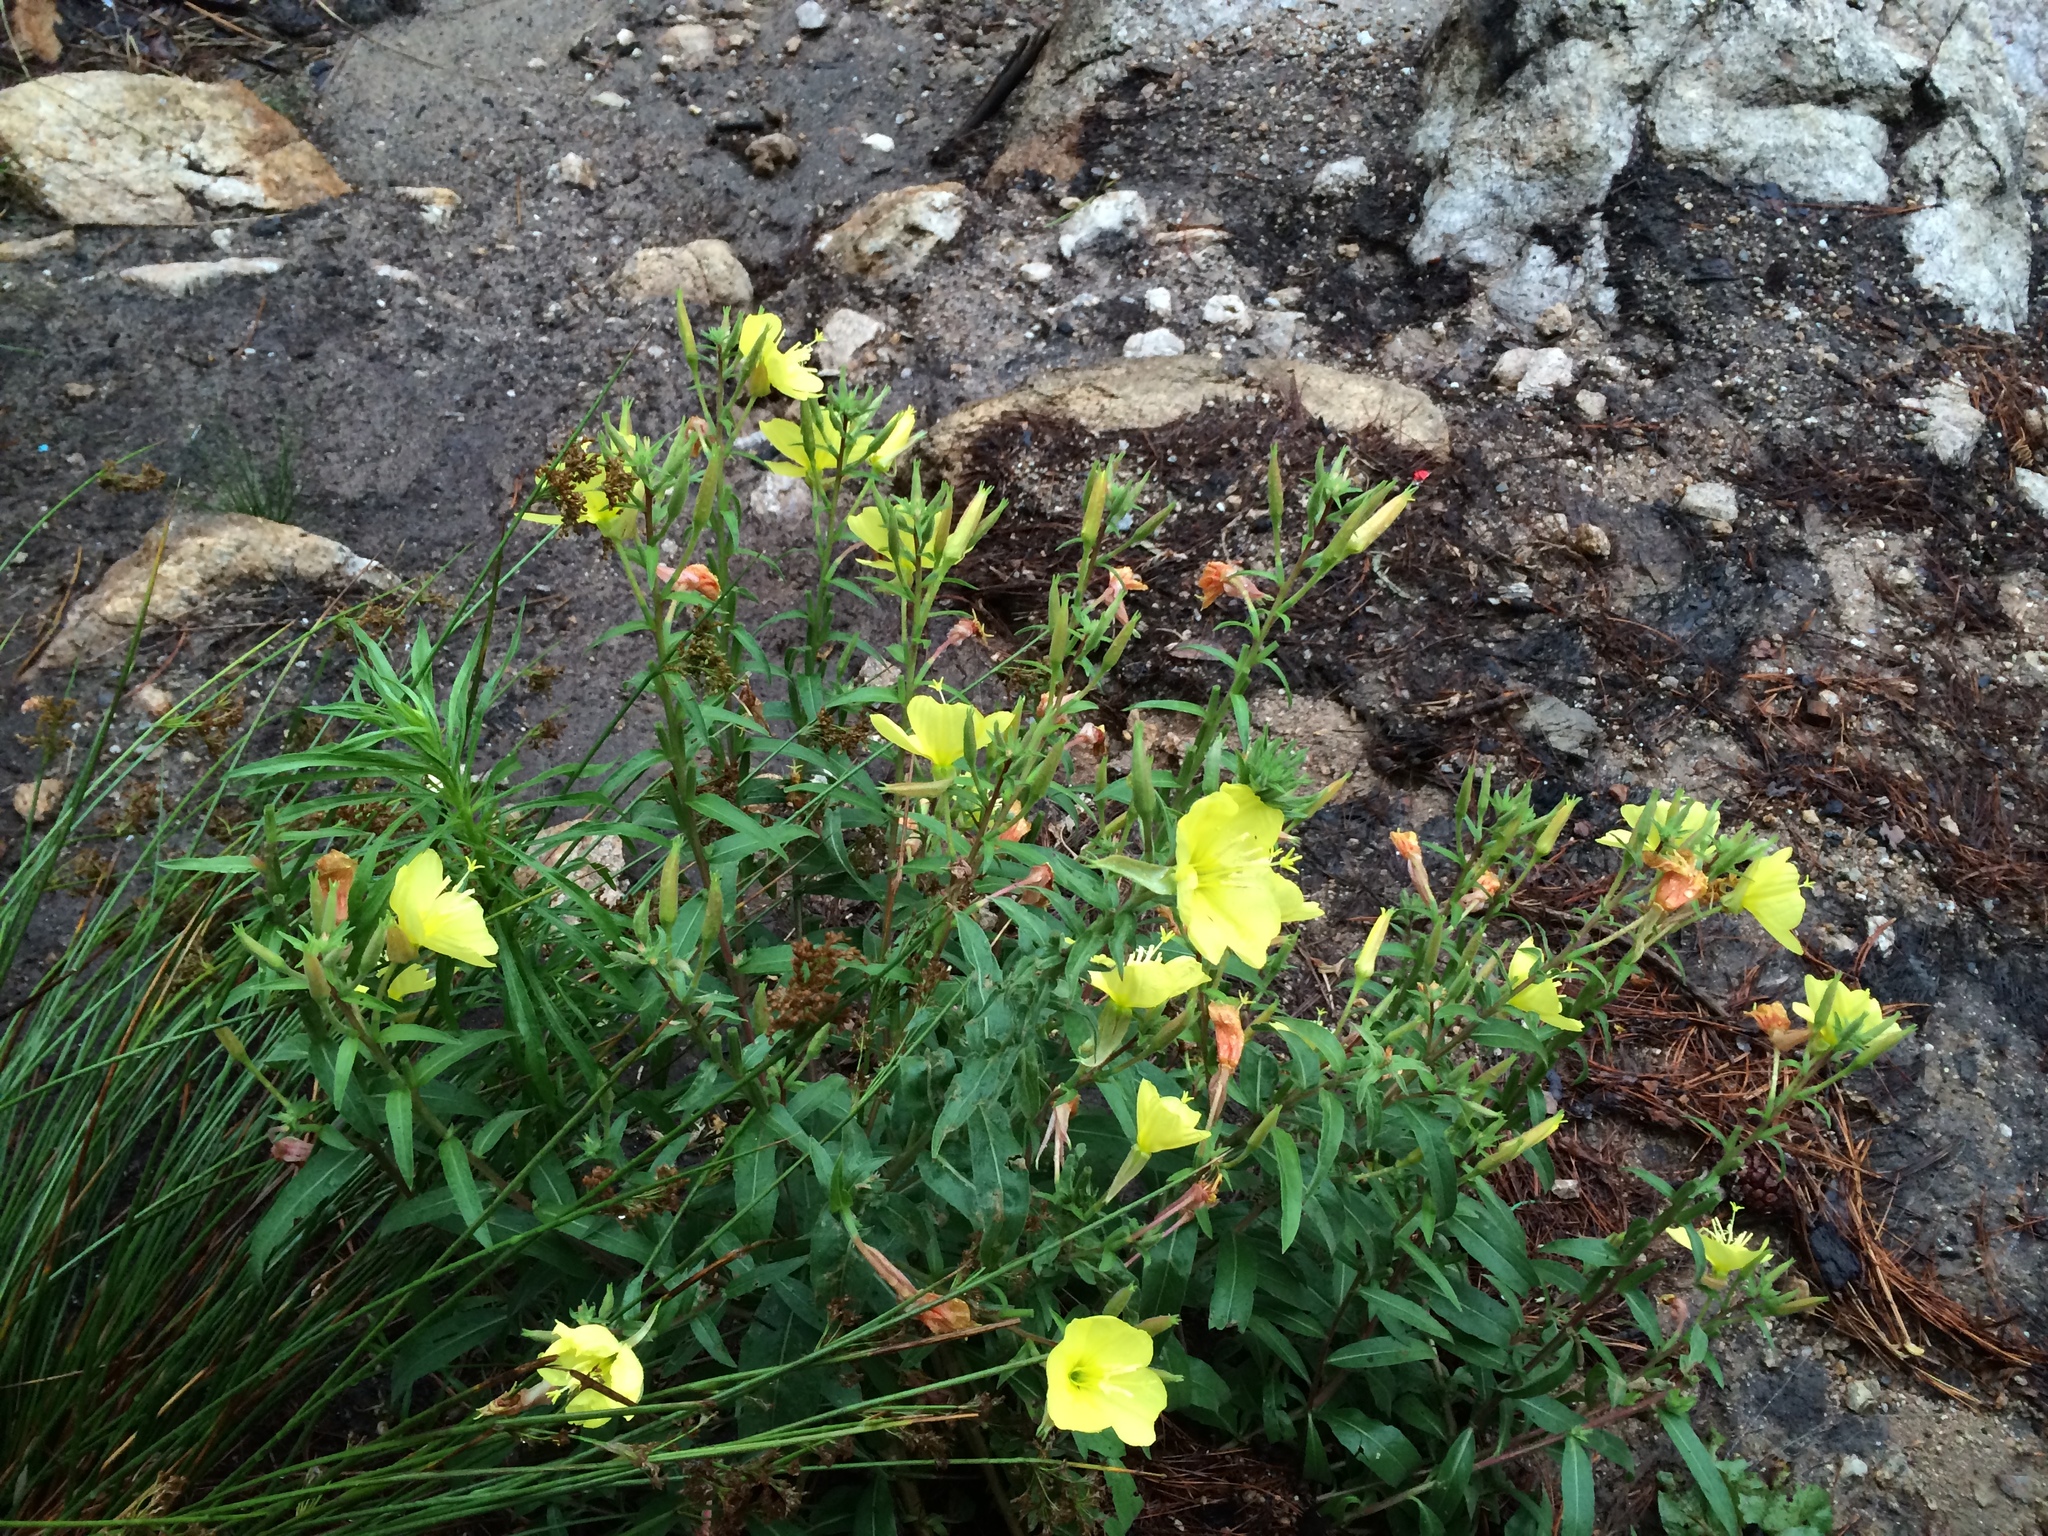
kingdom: Plantae
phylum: Tracheophyta
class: Magnoliopsida
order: Myrtales
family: Onagraceae
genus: Oenothera
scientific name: Oenothera elata
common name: Hooker's evening-primrose
